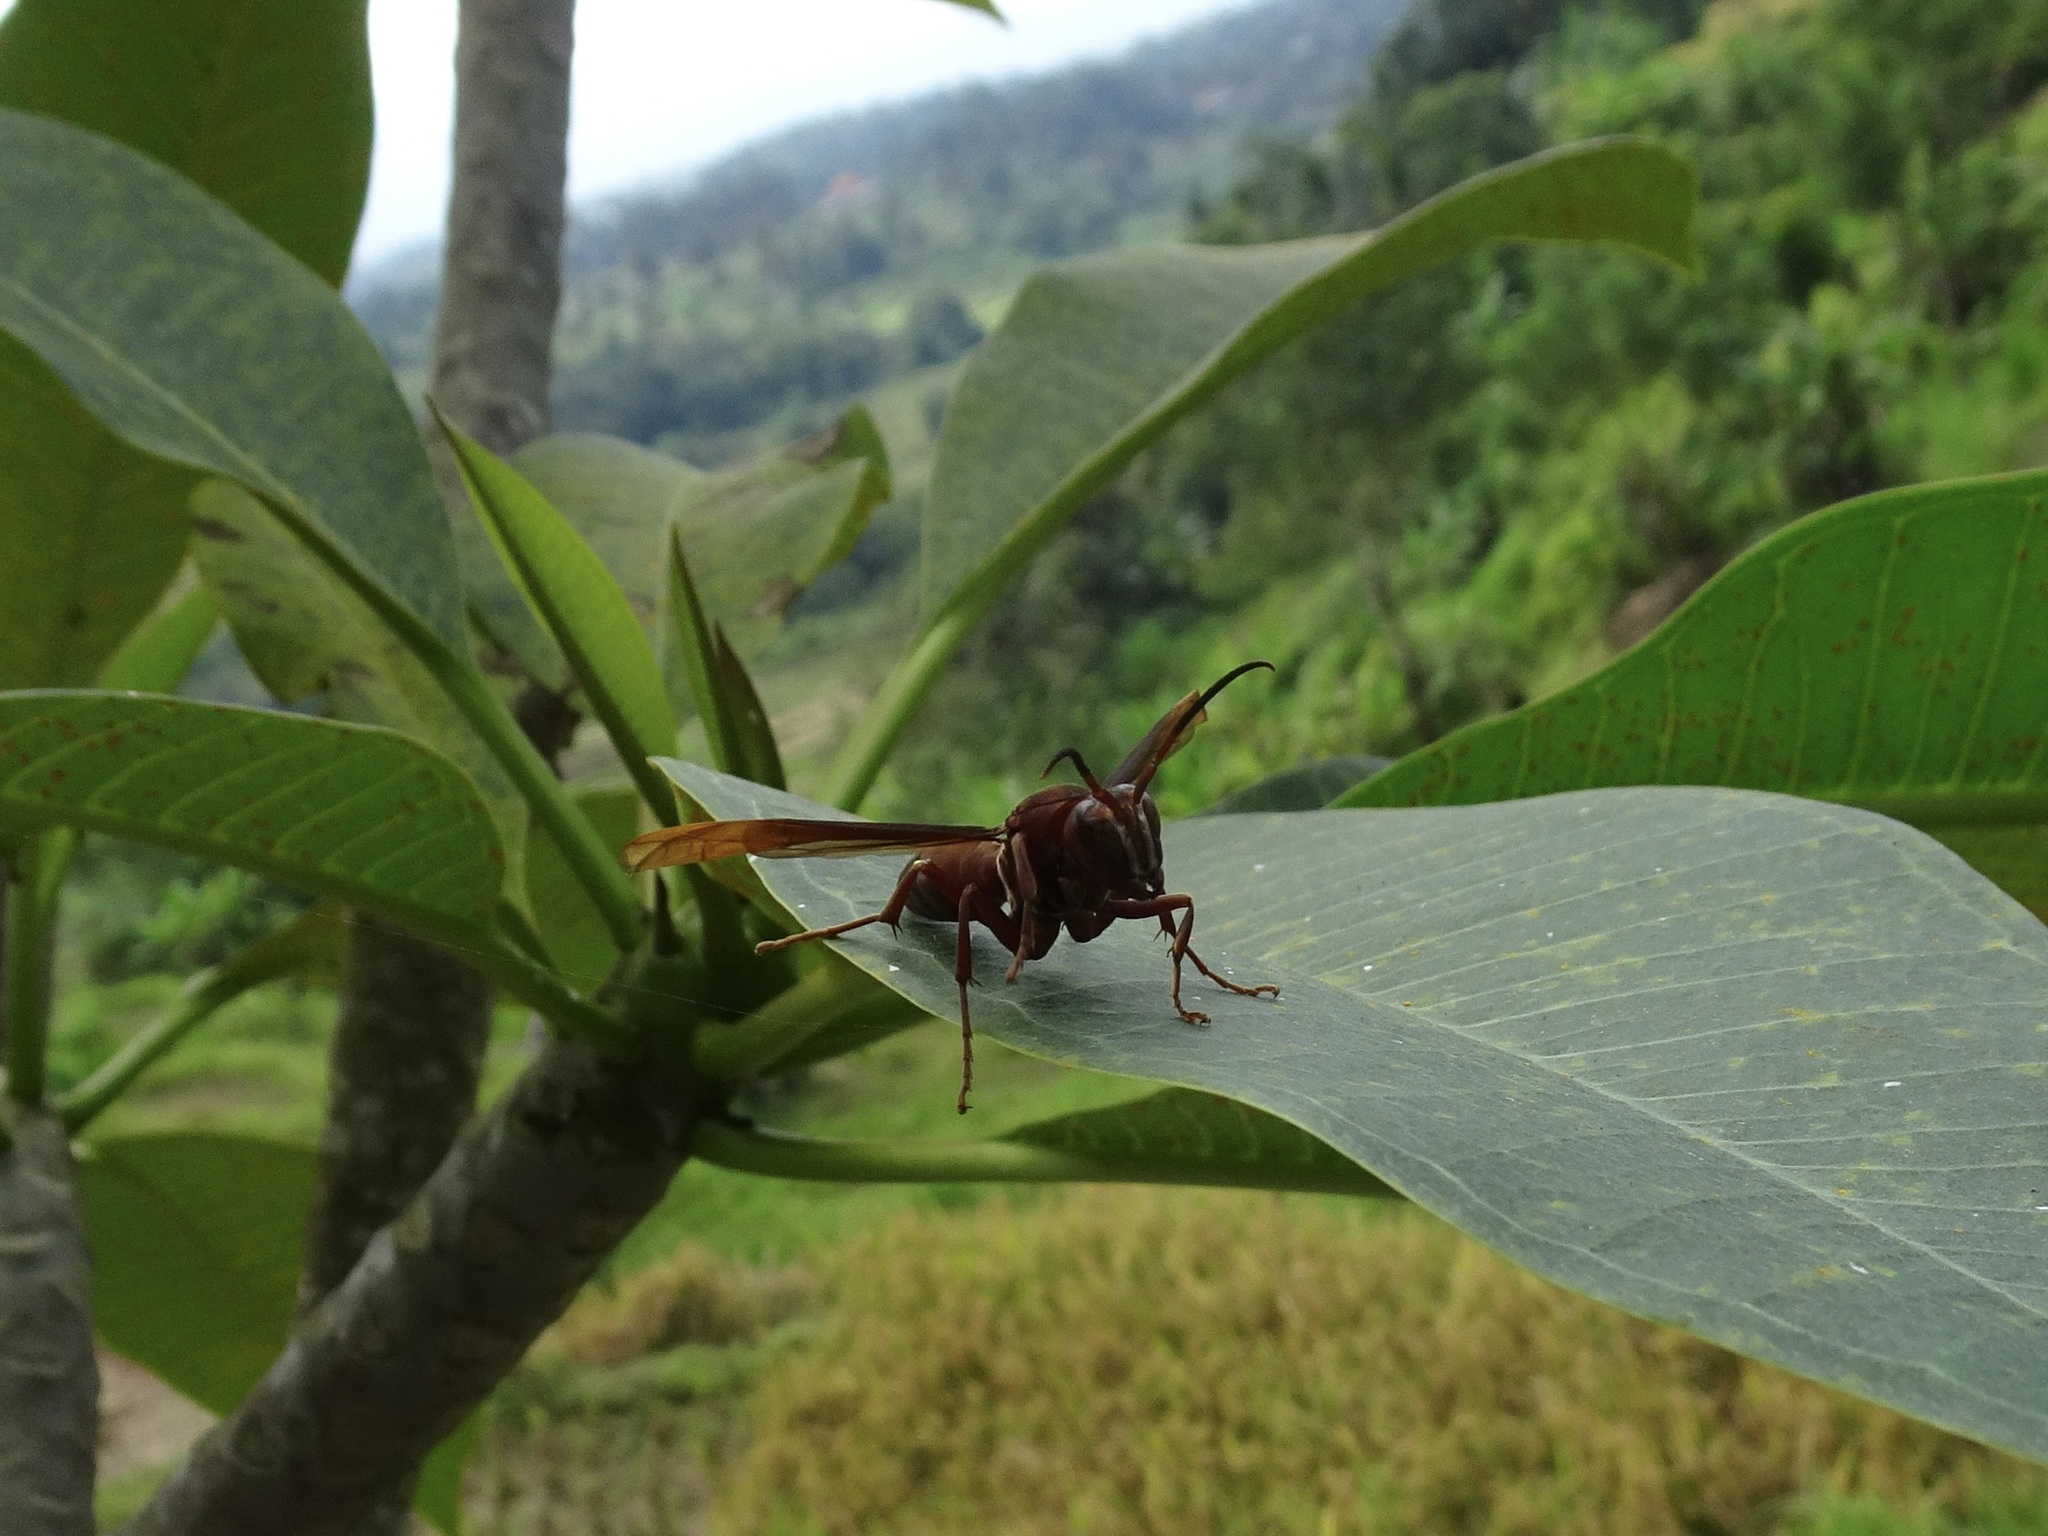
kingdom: Animalia
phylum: Arthropoda
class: Insecta
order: Hymenoptera
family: Eumenidae
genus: Polistes
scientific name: Polistes tenebricosus
